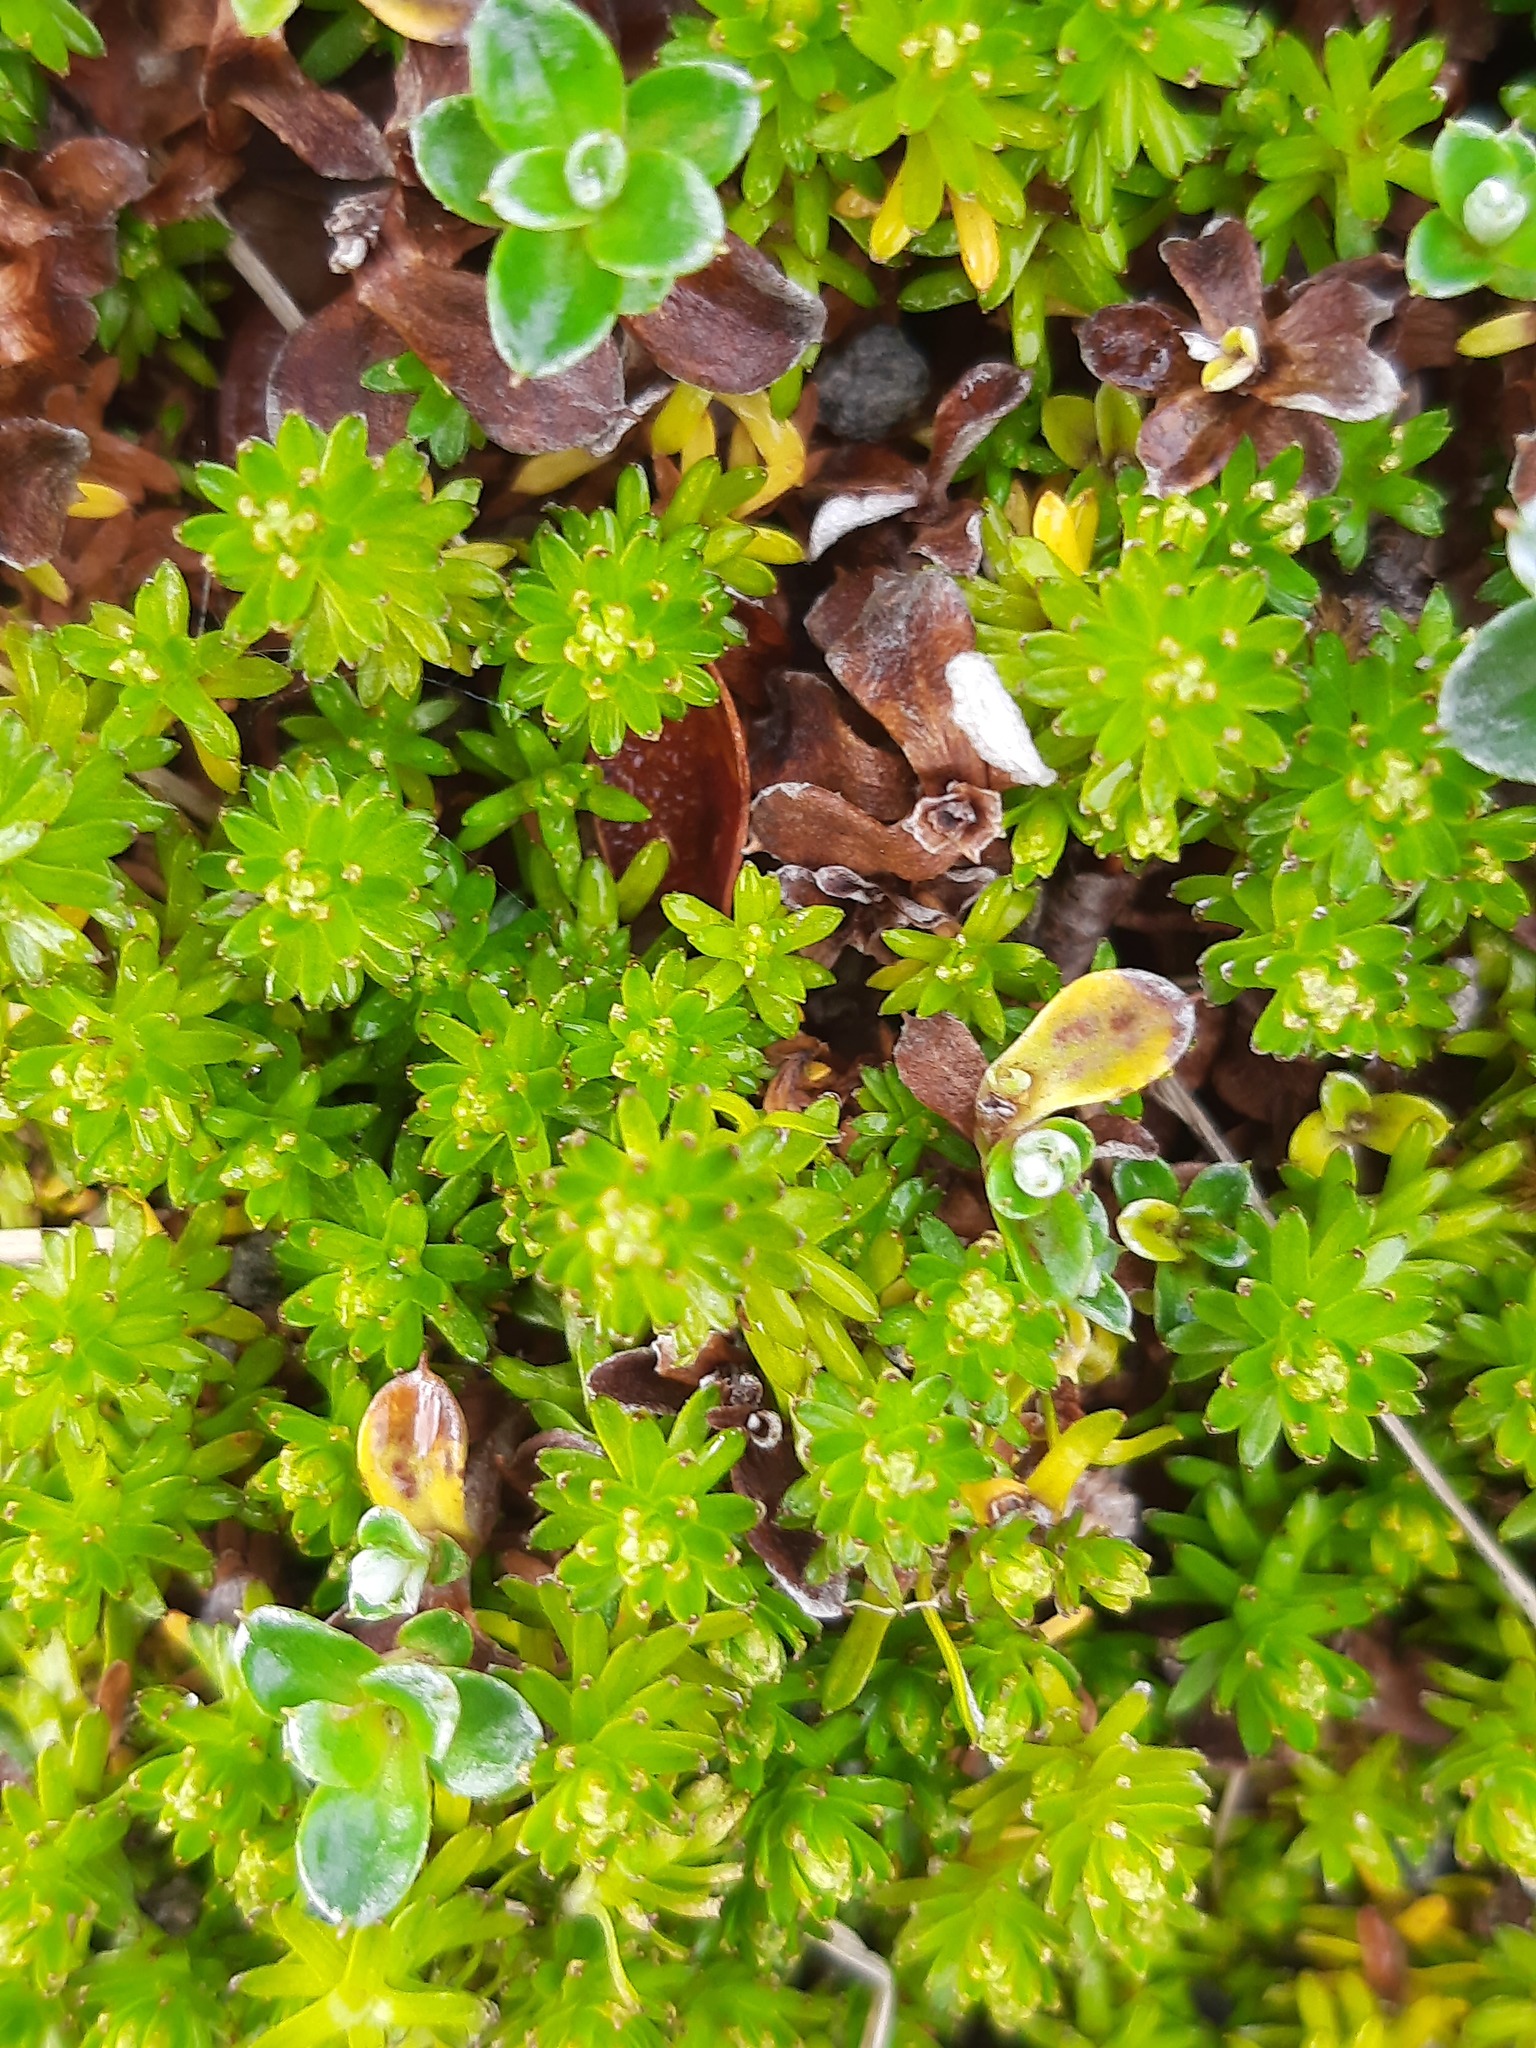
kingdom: Plantae
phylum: Tracheophyta
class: Magnoliopsida
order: Asterales
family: Asteraceae
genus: Raoulia
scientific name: Raoulia glabra
